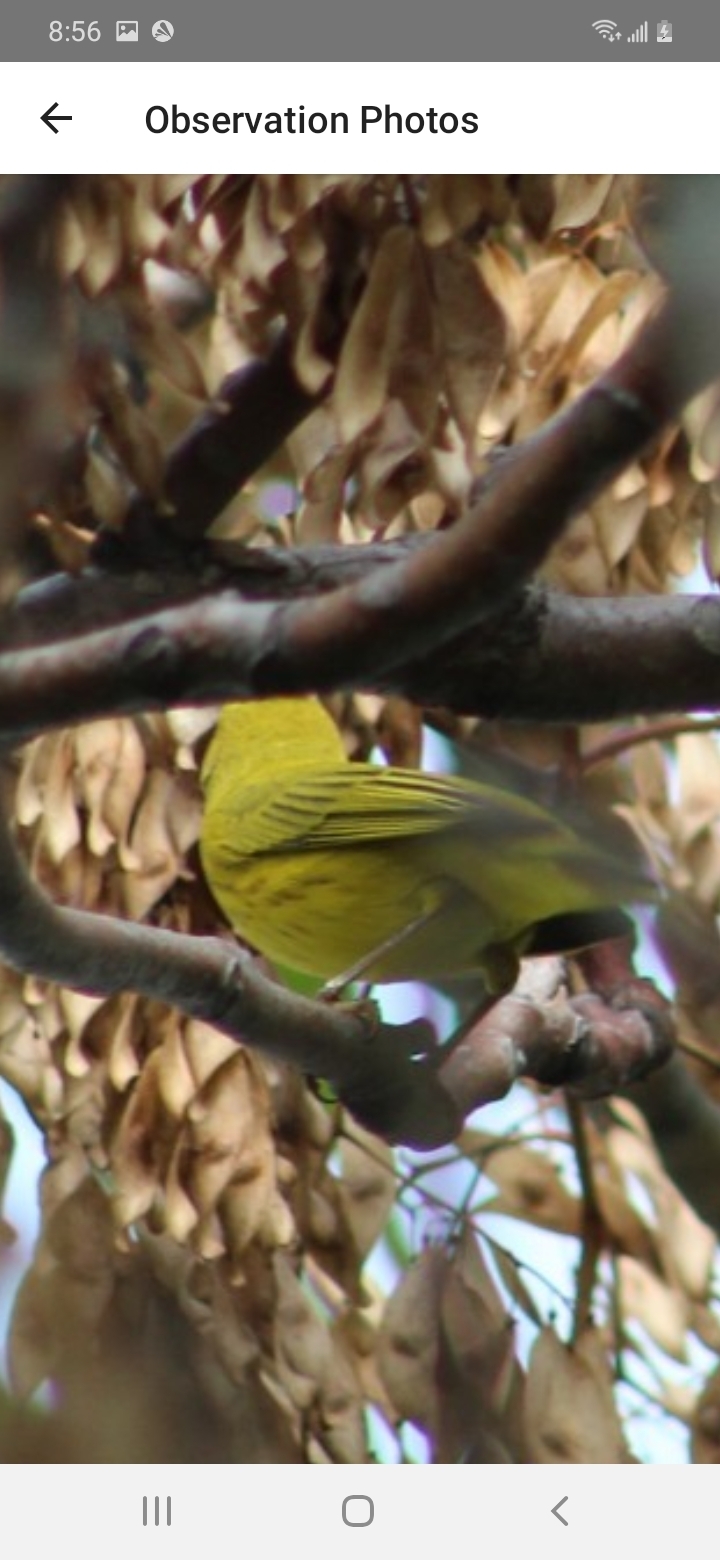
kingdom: Animalia
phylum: Chordata
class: Aves
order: Passeriformes
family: Parulidae
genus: Setophaga
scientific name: Setophaga petechia
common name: Yellow warbler
